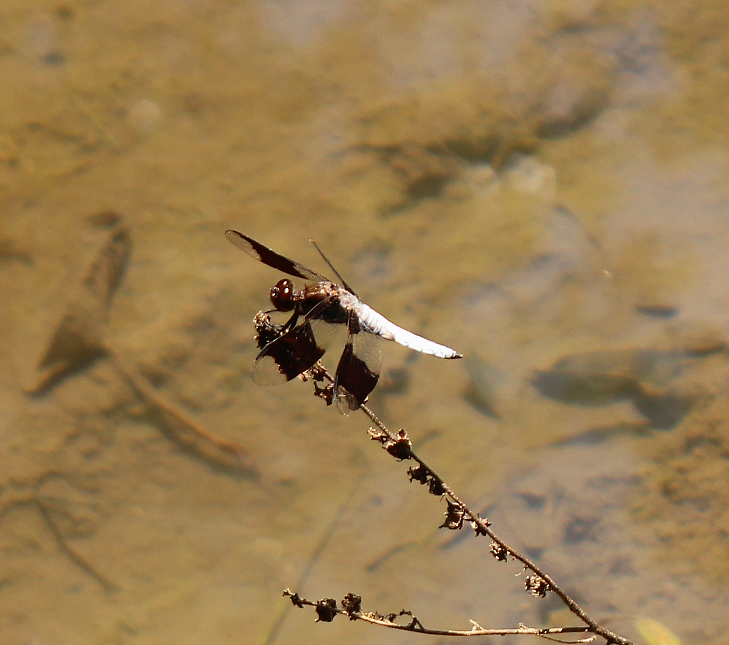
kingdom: Animalia
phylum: Arthropoda
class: Insecta
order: Odonata
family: Libellulidae
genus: Plathemis
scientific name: Plathemis lydia
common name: Common whitetail
